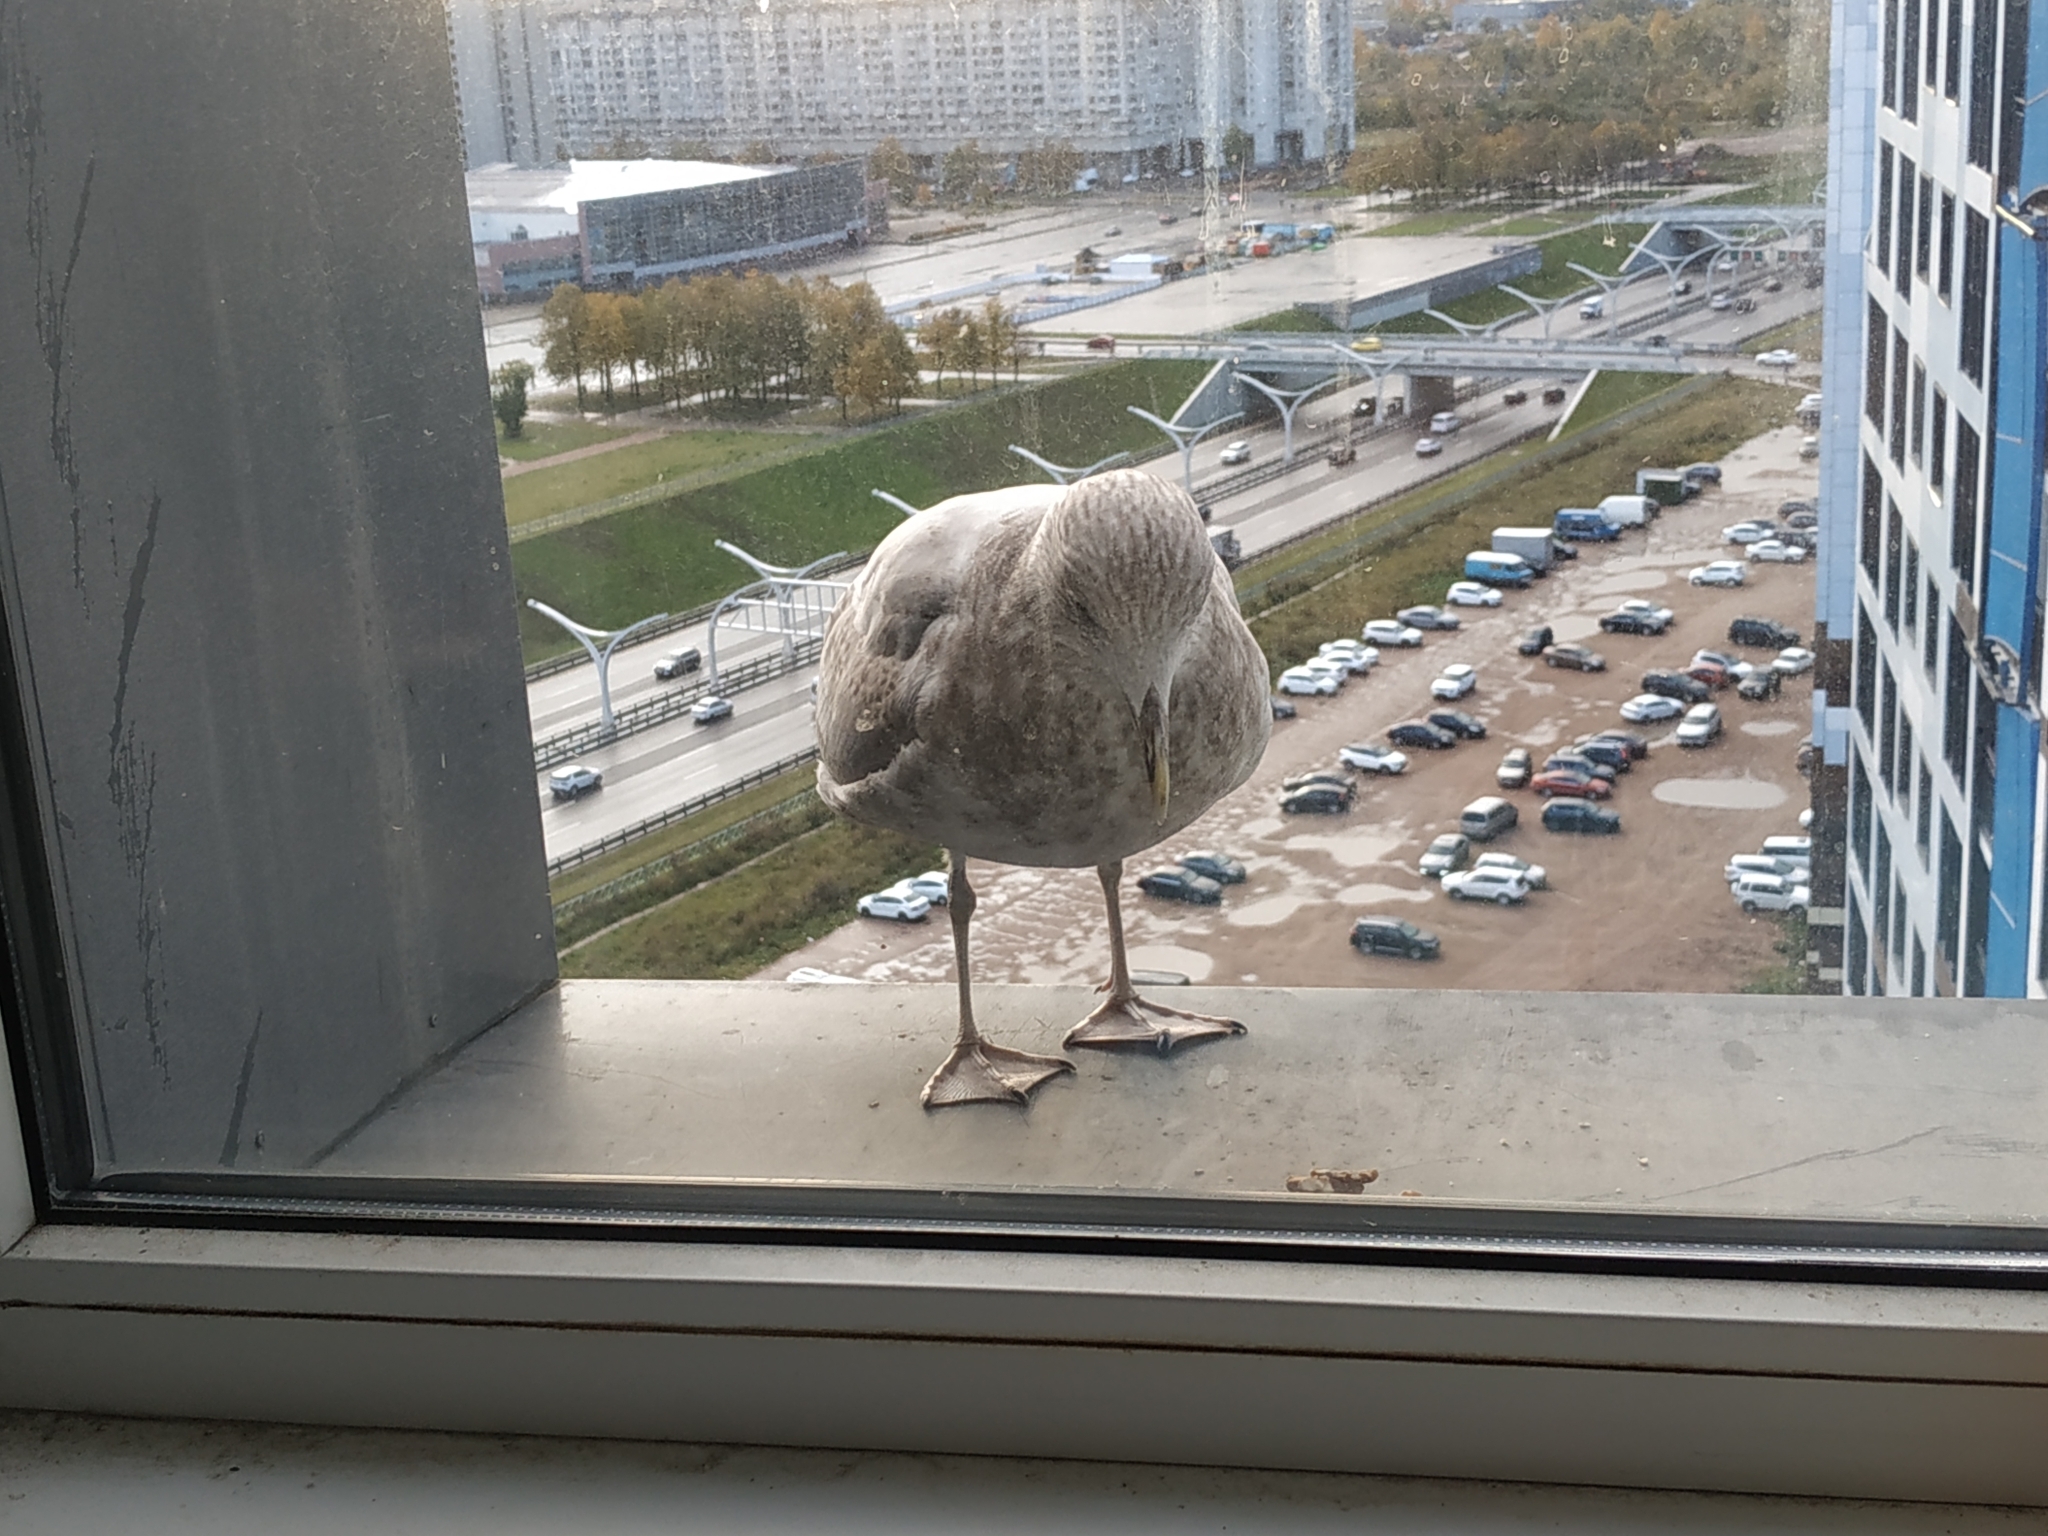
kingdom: Animalia
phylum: Chordata
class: Aves
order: Charadriiformes
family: Laridae
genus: Larus
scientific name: Larus argentatus
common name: Herring gull
